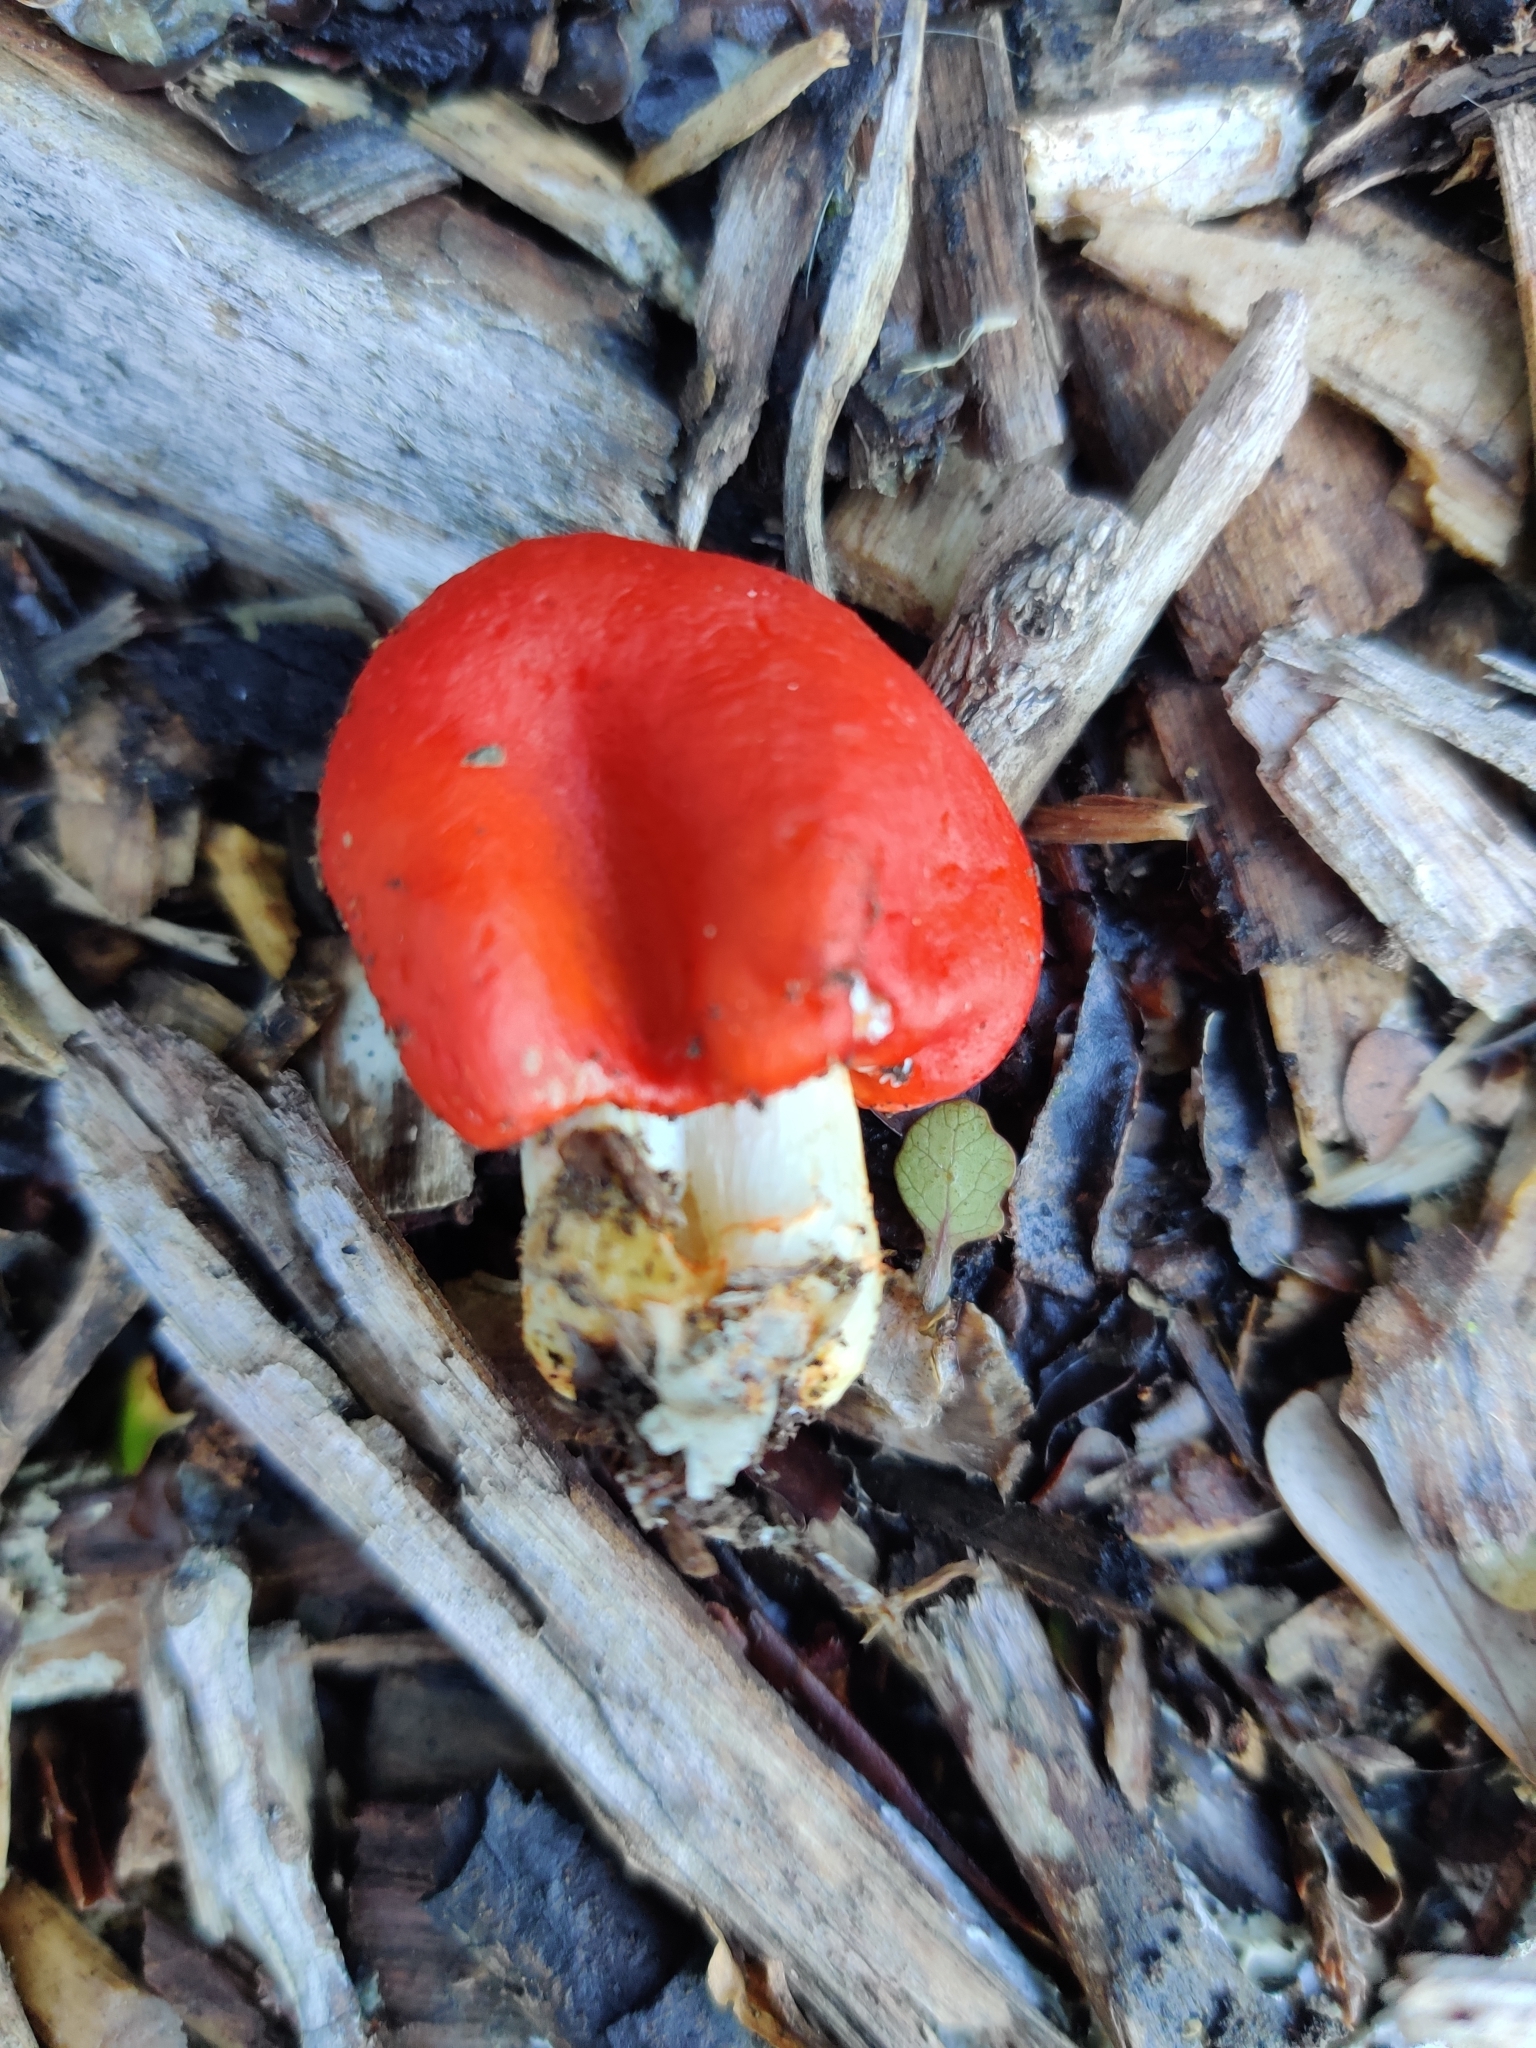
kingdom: Fungi
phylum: Basidiomycota
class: Agaricomycetes
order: Agaricales
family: Strophariaceae
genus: Leratiomyces
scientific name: Leratiomyces erythrocephalus
